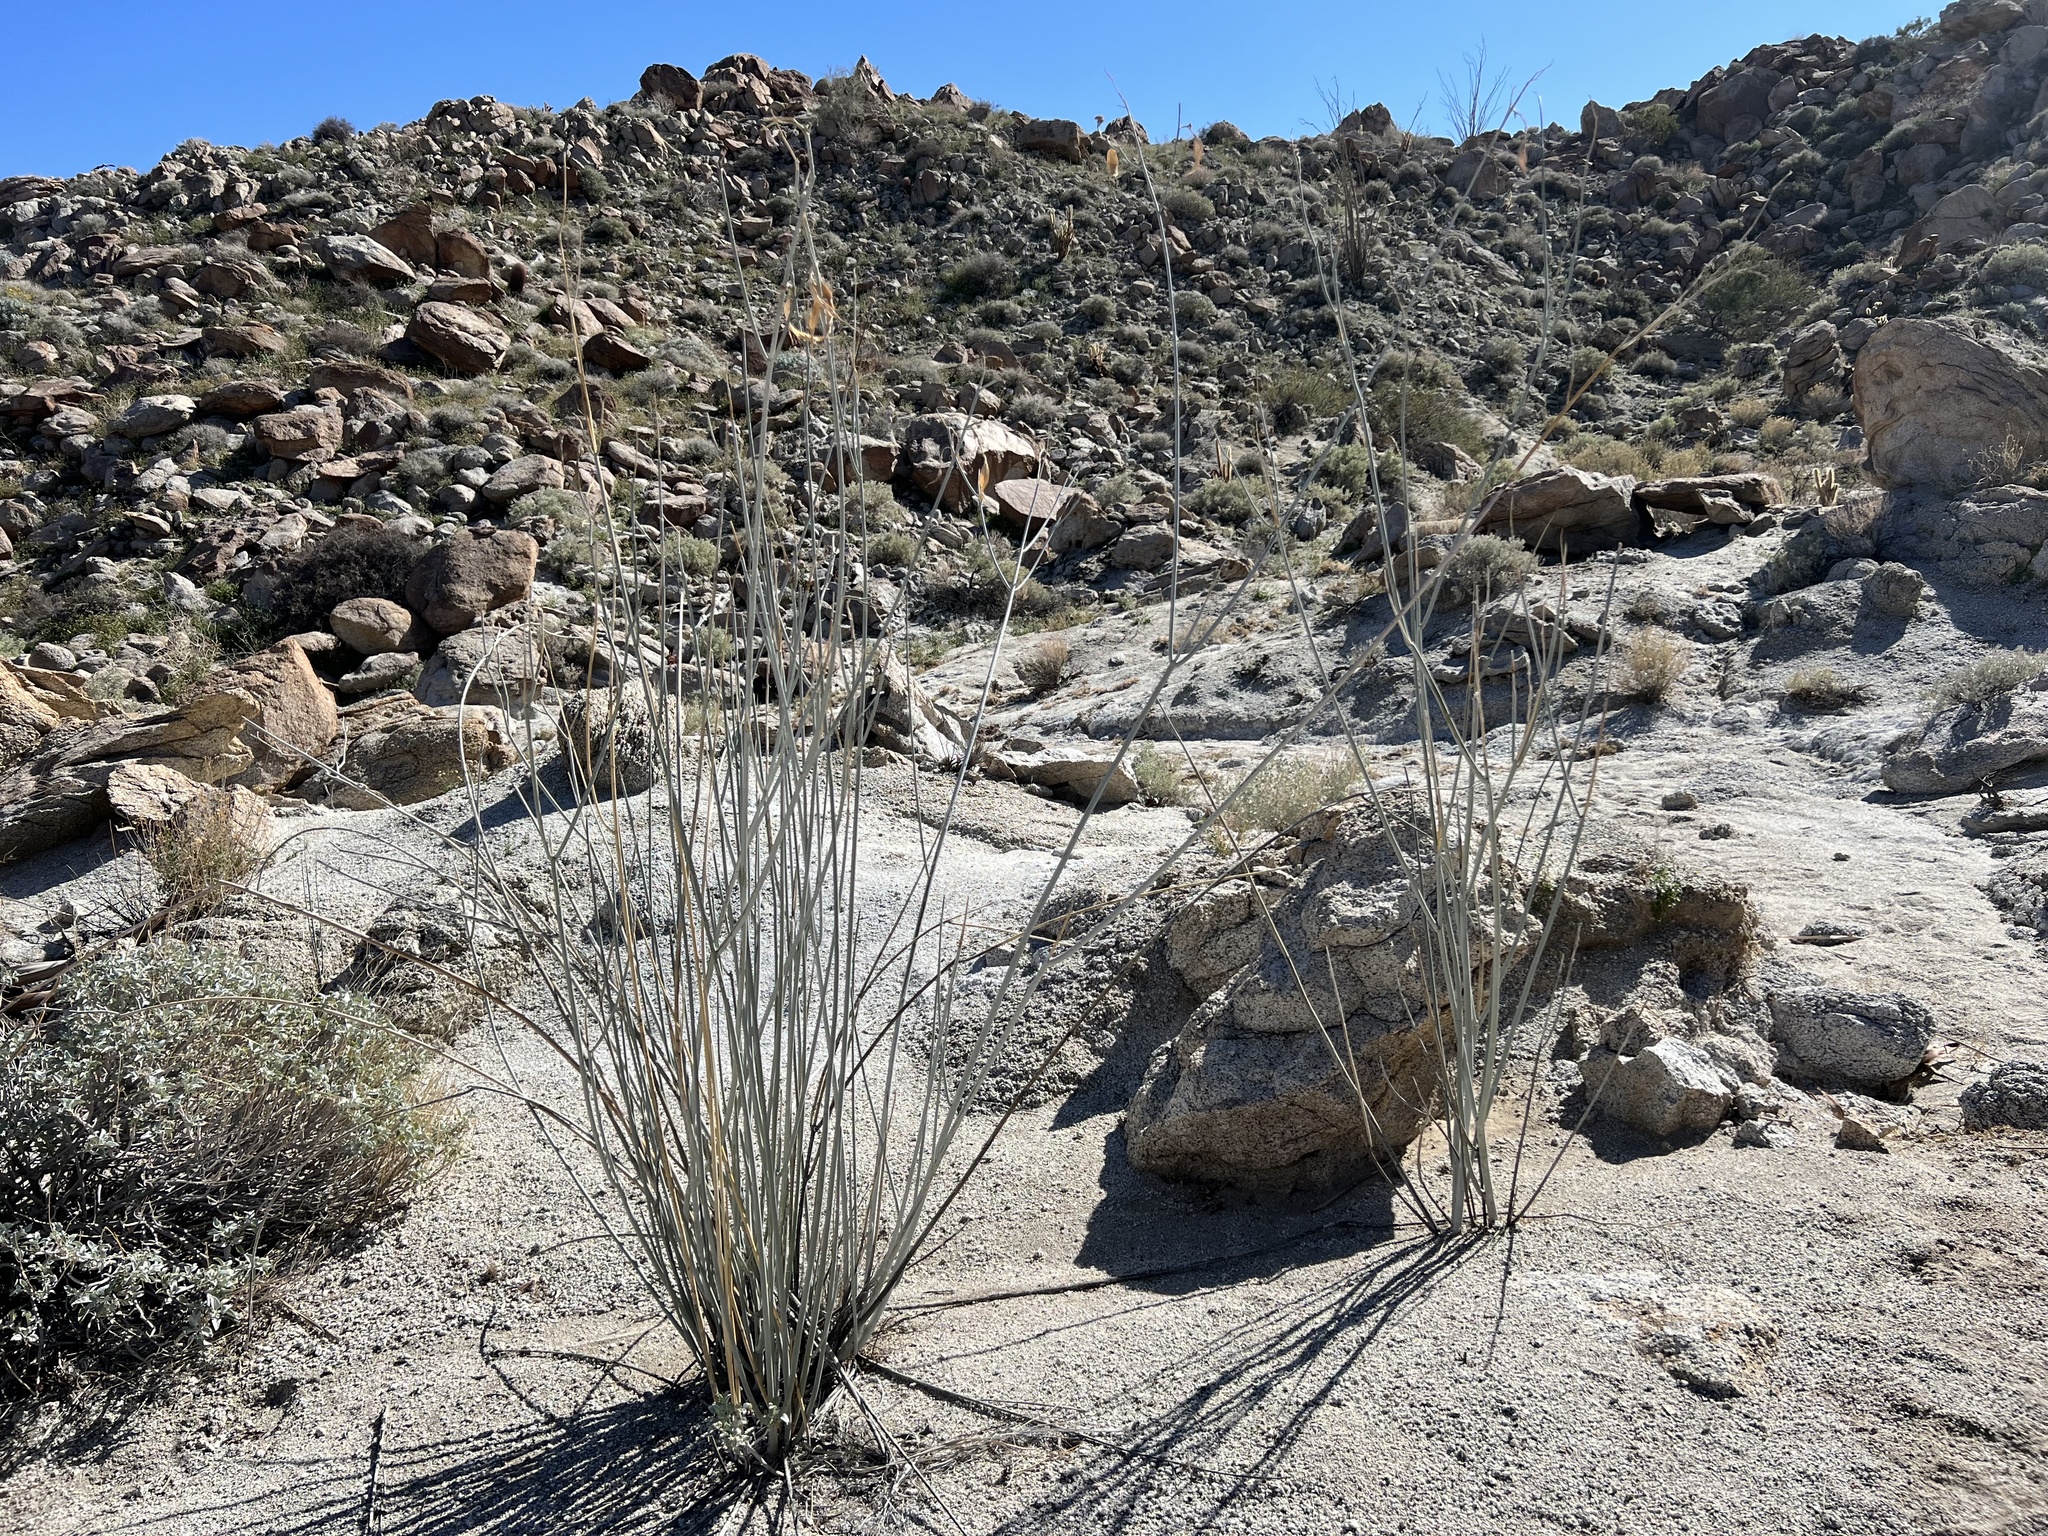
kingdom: Plantae
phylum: Tracheophyta
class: Magnoliopsida
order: Gentianales
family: Apocynaceae
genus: Asclepias
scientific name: Asclepias albicans
